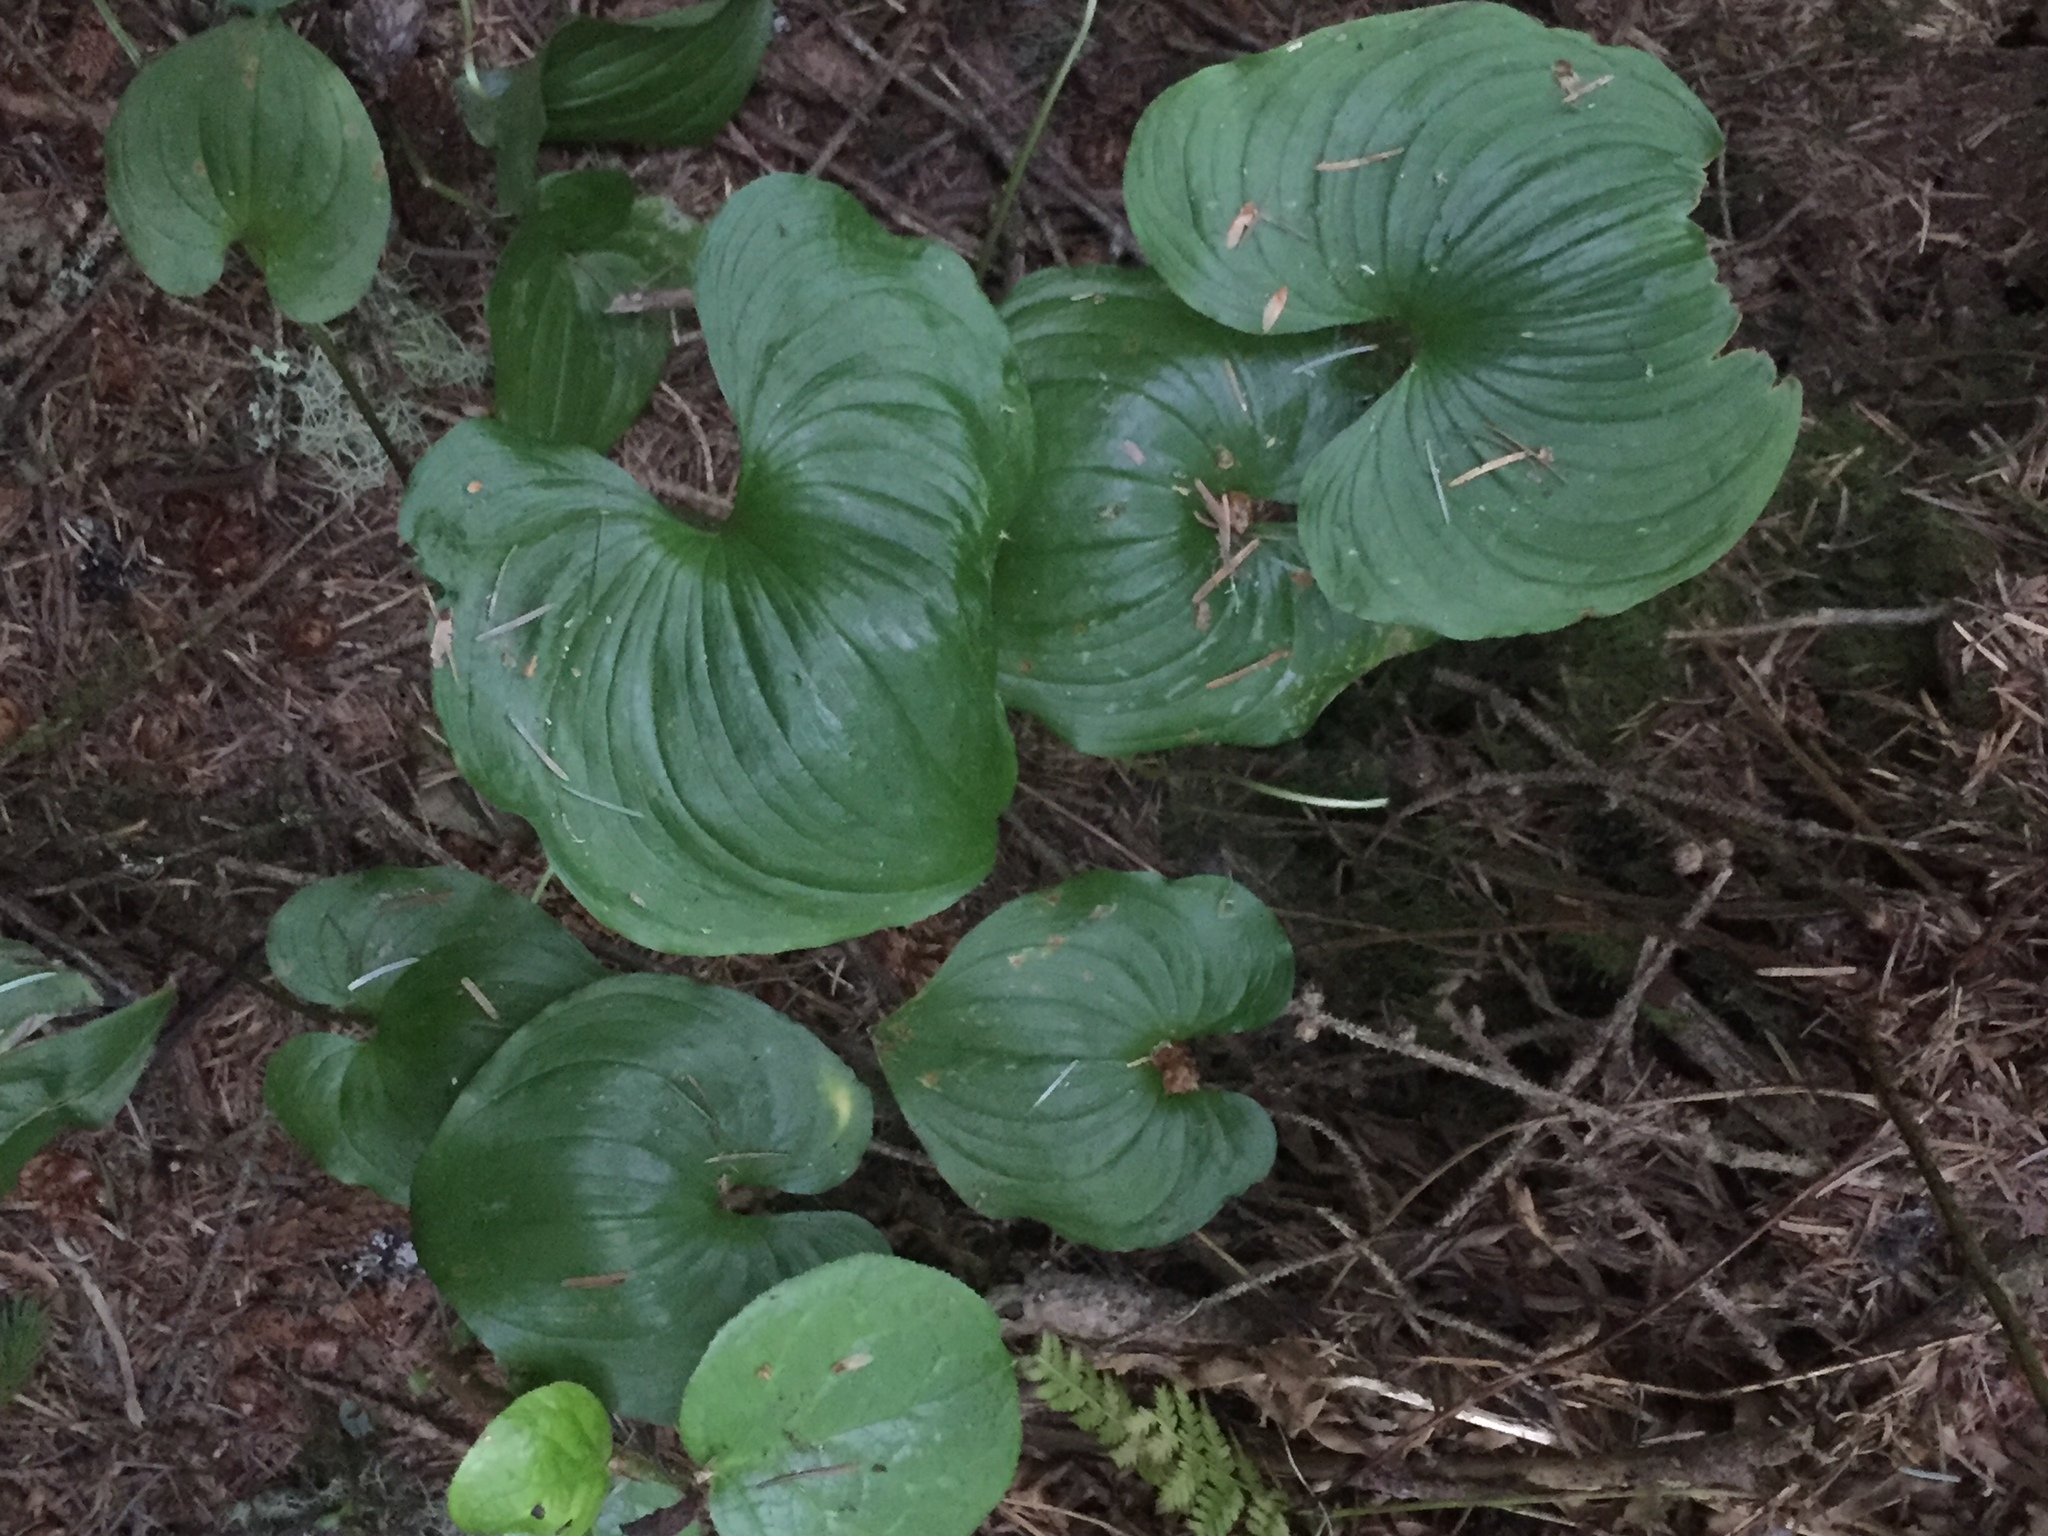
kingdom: Plantae
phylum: Tracheophyta
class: Liliopsida
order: Asparagales
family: Asparagaceae
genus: Maianthemum
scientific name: Maianthemum dilatatum
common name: False lily-of-the-valley
